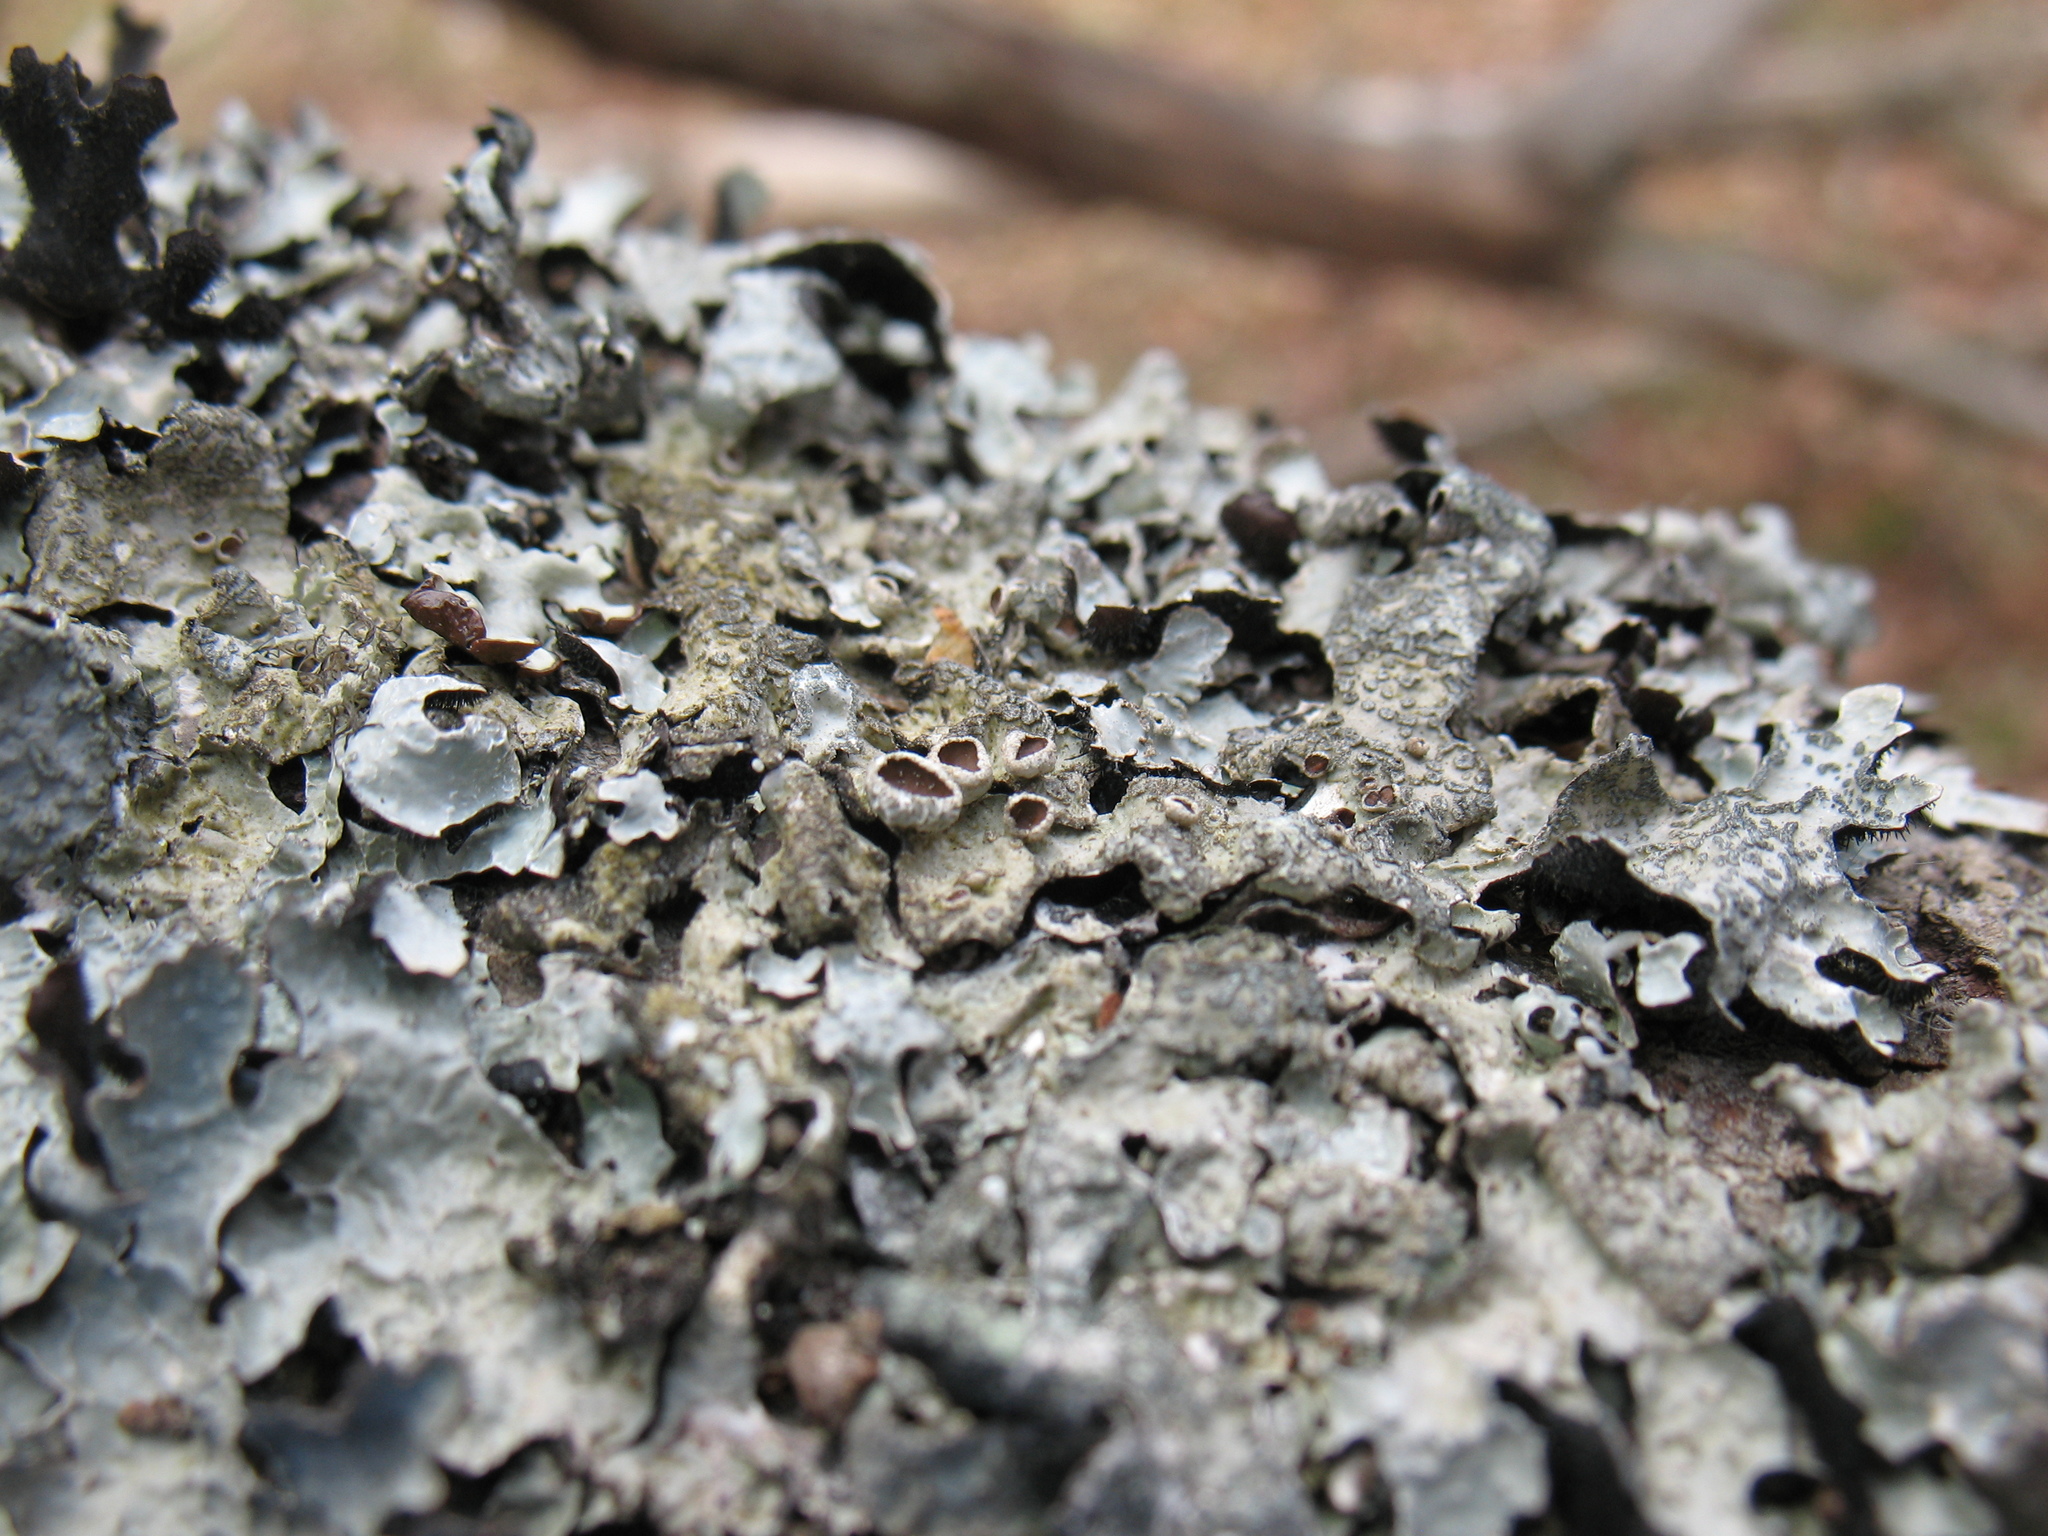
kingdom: Fungi
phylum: Ascomycota
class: Lecanoromycetes
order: Lecanorales
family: Parmeliaceae
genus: Parmelia
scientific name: Parmelia sulcata
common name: Netted shield lichen
